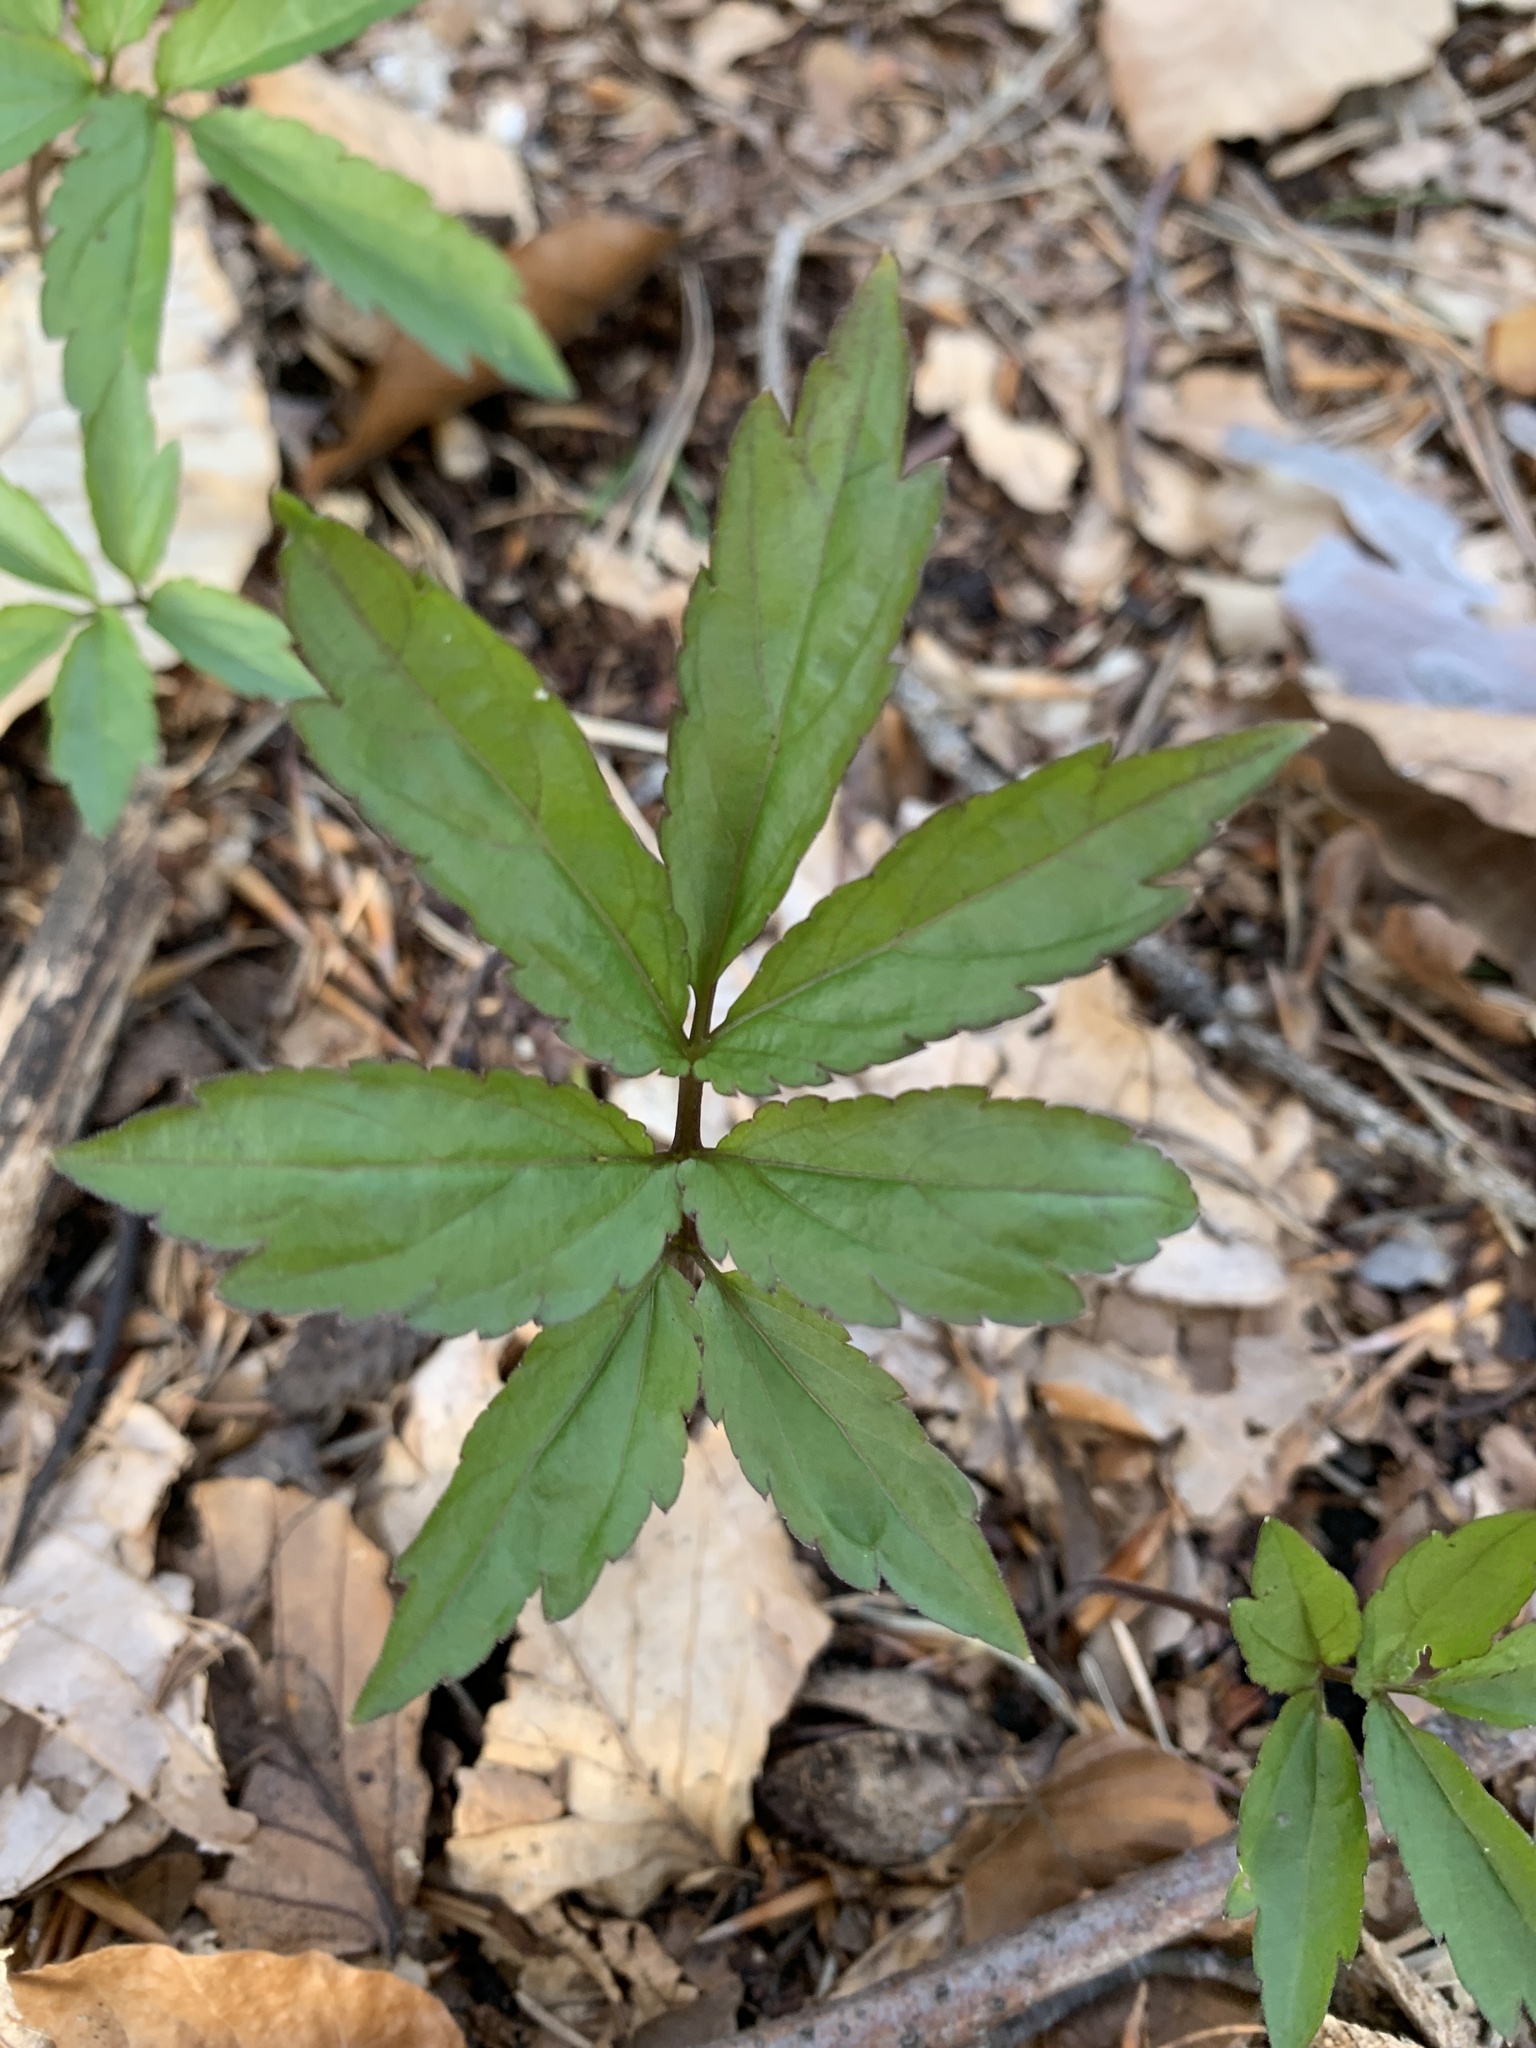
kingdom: Plantae
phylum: Tracheophyta
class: Magnoliopsida
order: Brassicales
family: Brassicaceae
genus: Cardamine
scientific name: Cardamine bulbifera
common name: Coralroot bittercress
